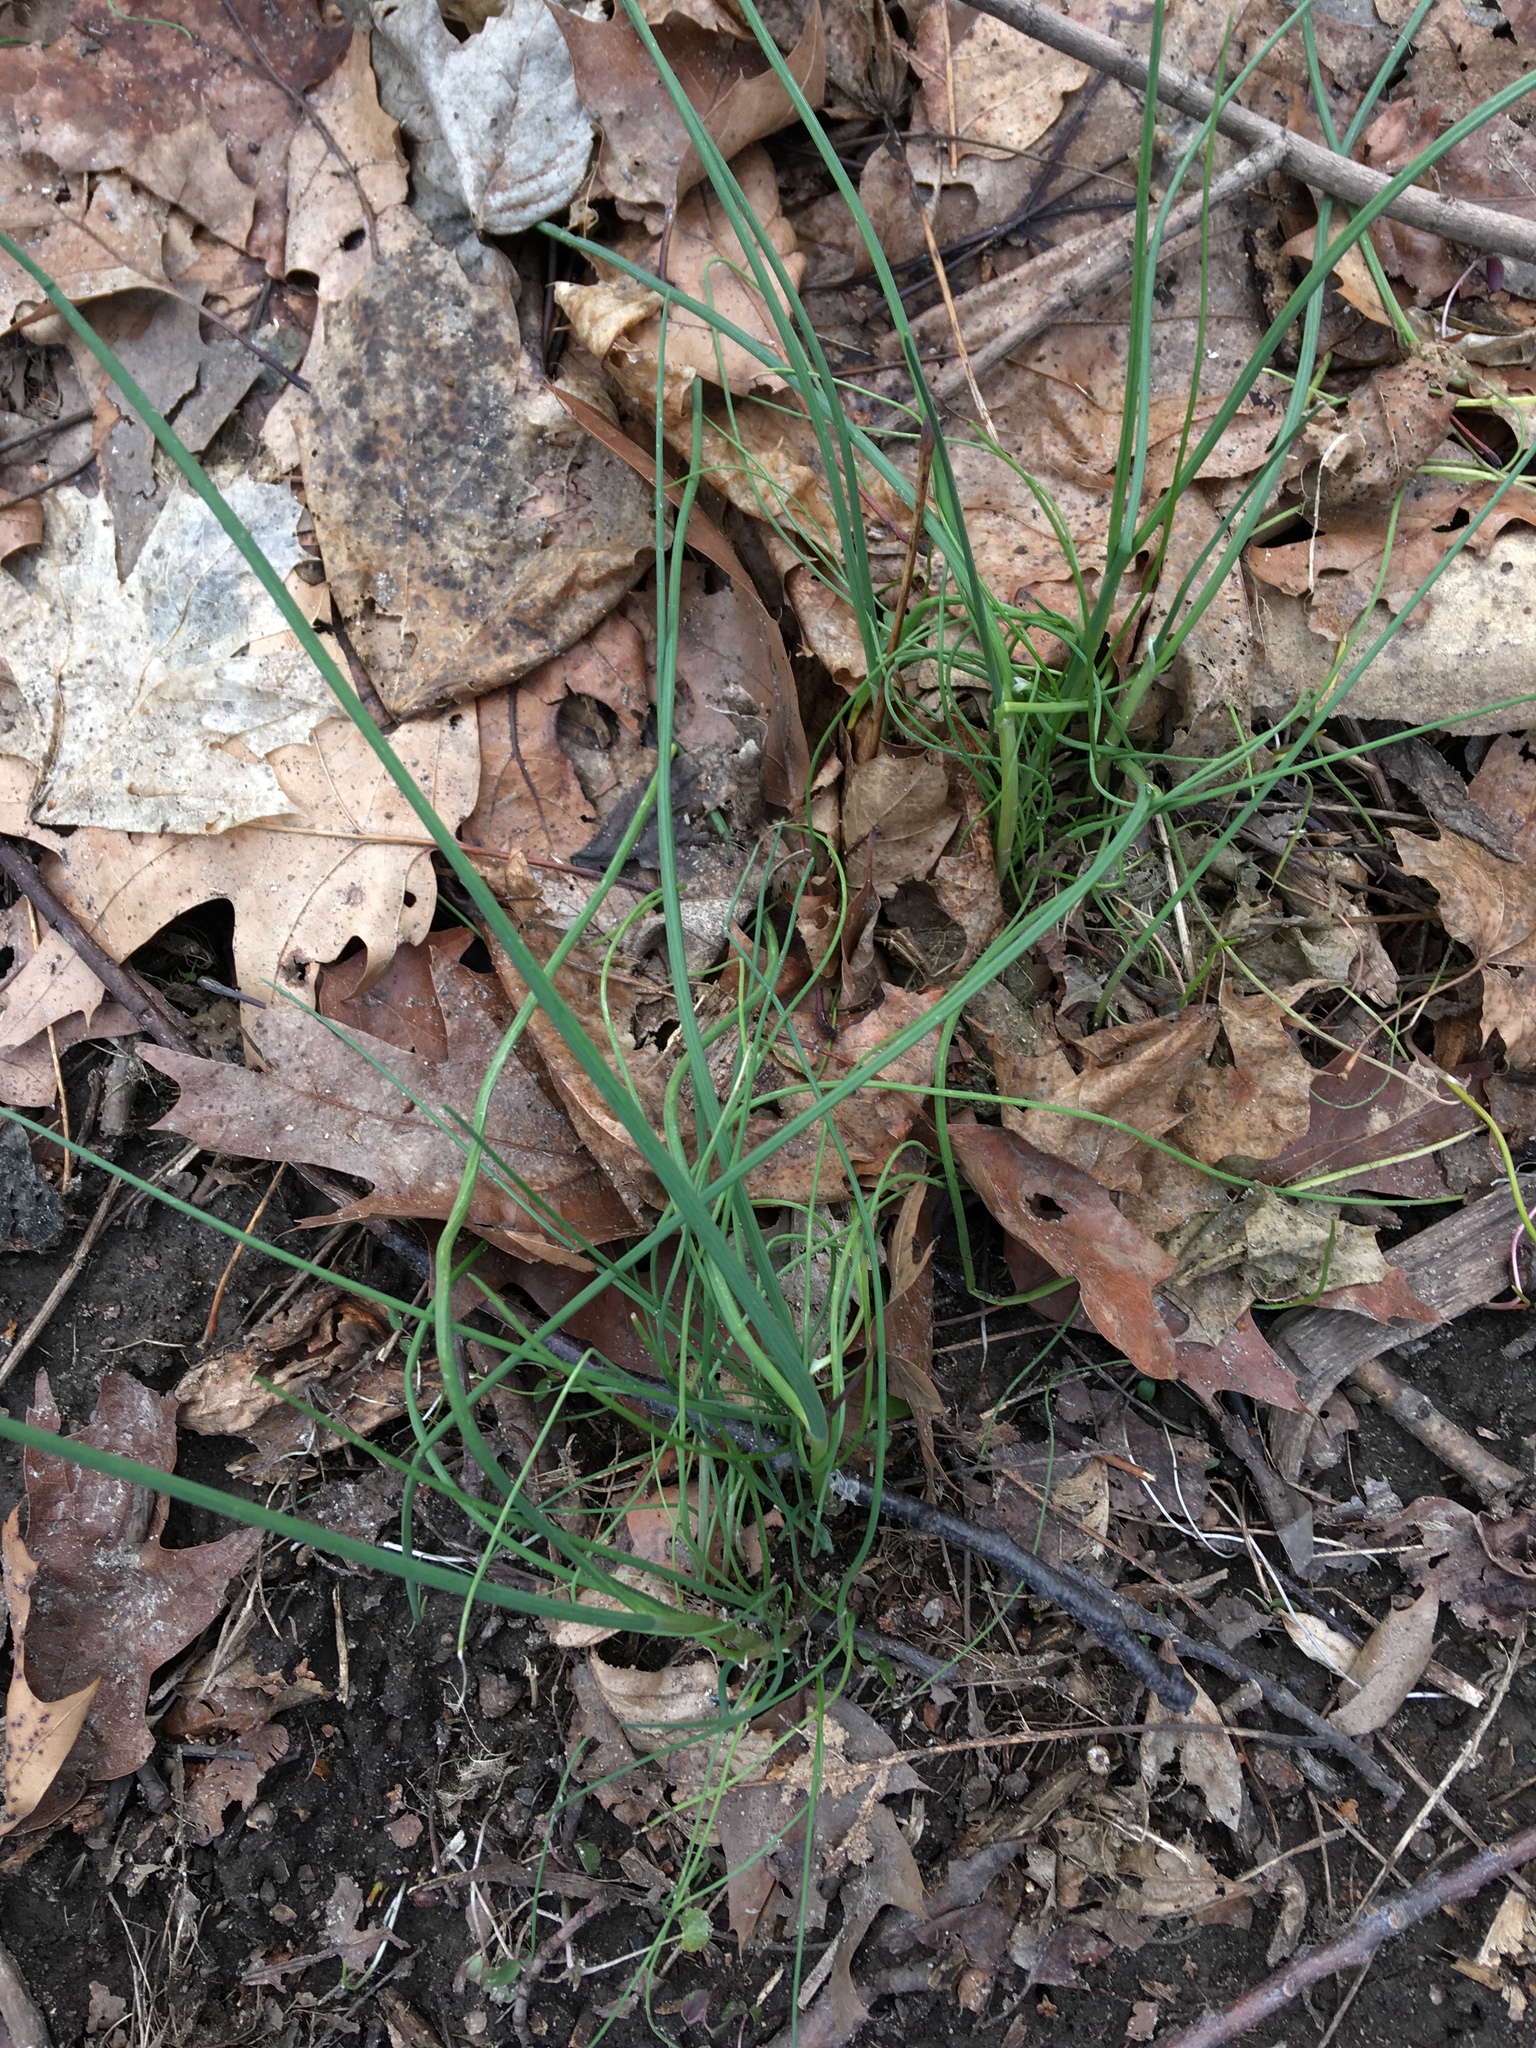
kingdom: Plantae
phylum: Tracheophyta
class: Liliopsida
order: Asparagales
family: Amaryllidaceae
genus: Allium
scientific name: Allium vineale
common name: Crow garlic
